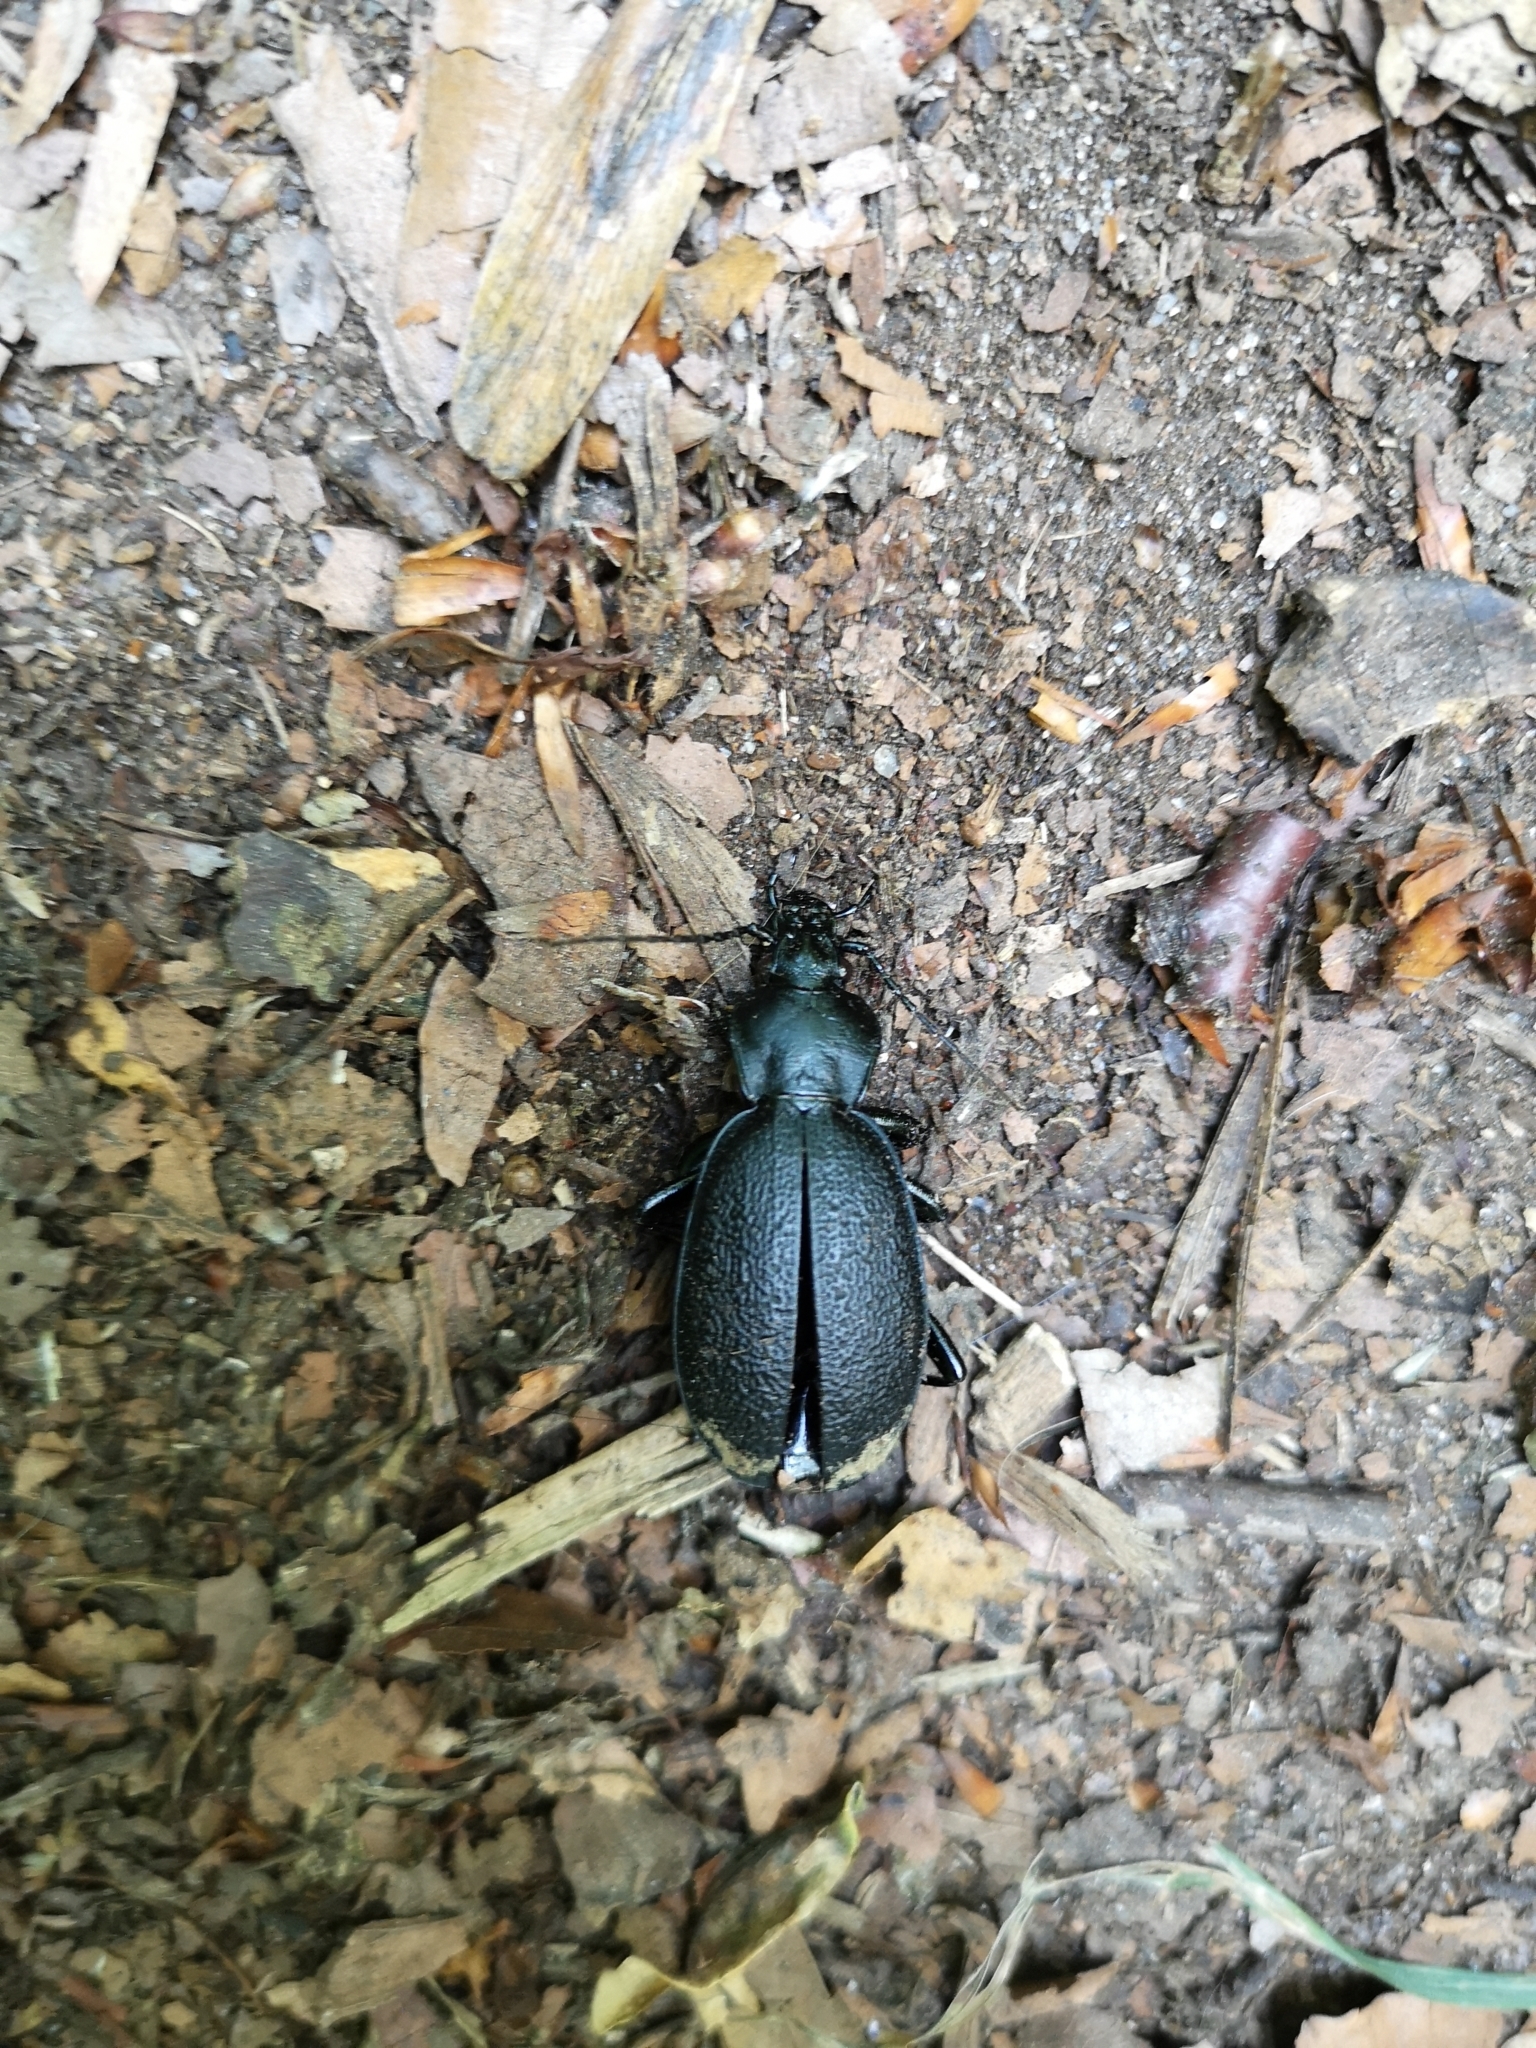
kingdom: Animalia
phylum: Arthropoda
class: Insecta
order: Coleoptera
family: Carabidae
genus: Carabus
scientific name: Carabus coriaceus
